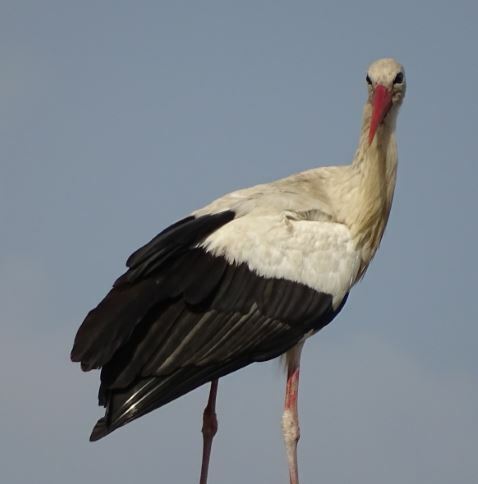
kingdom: Animalia
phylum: Chordata
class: Aves
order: Ciconiiformes
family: Ciconiidae
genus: Ciconia
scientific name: Ciconia ciconia
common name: White stork
